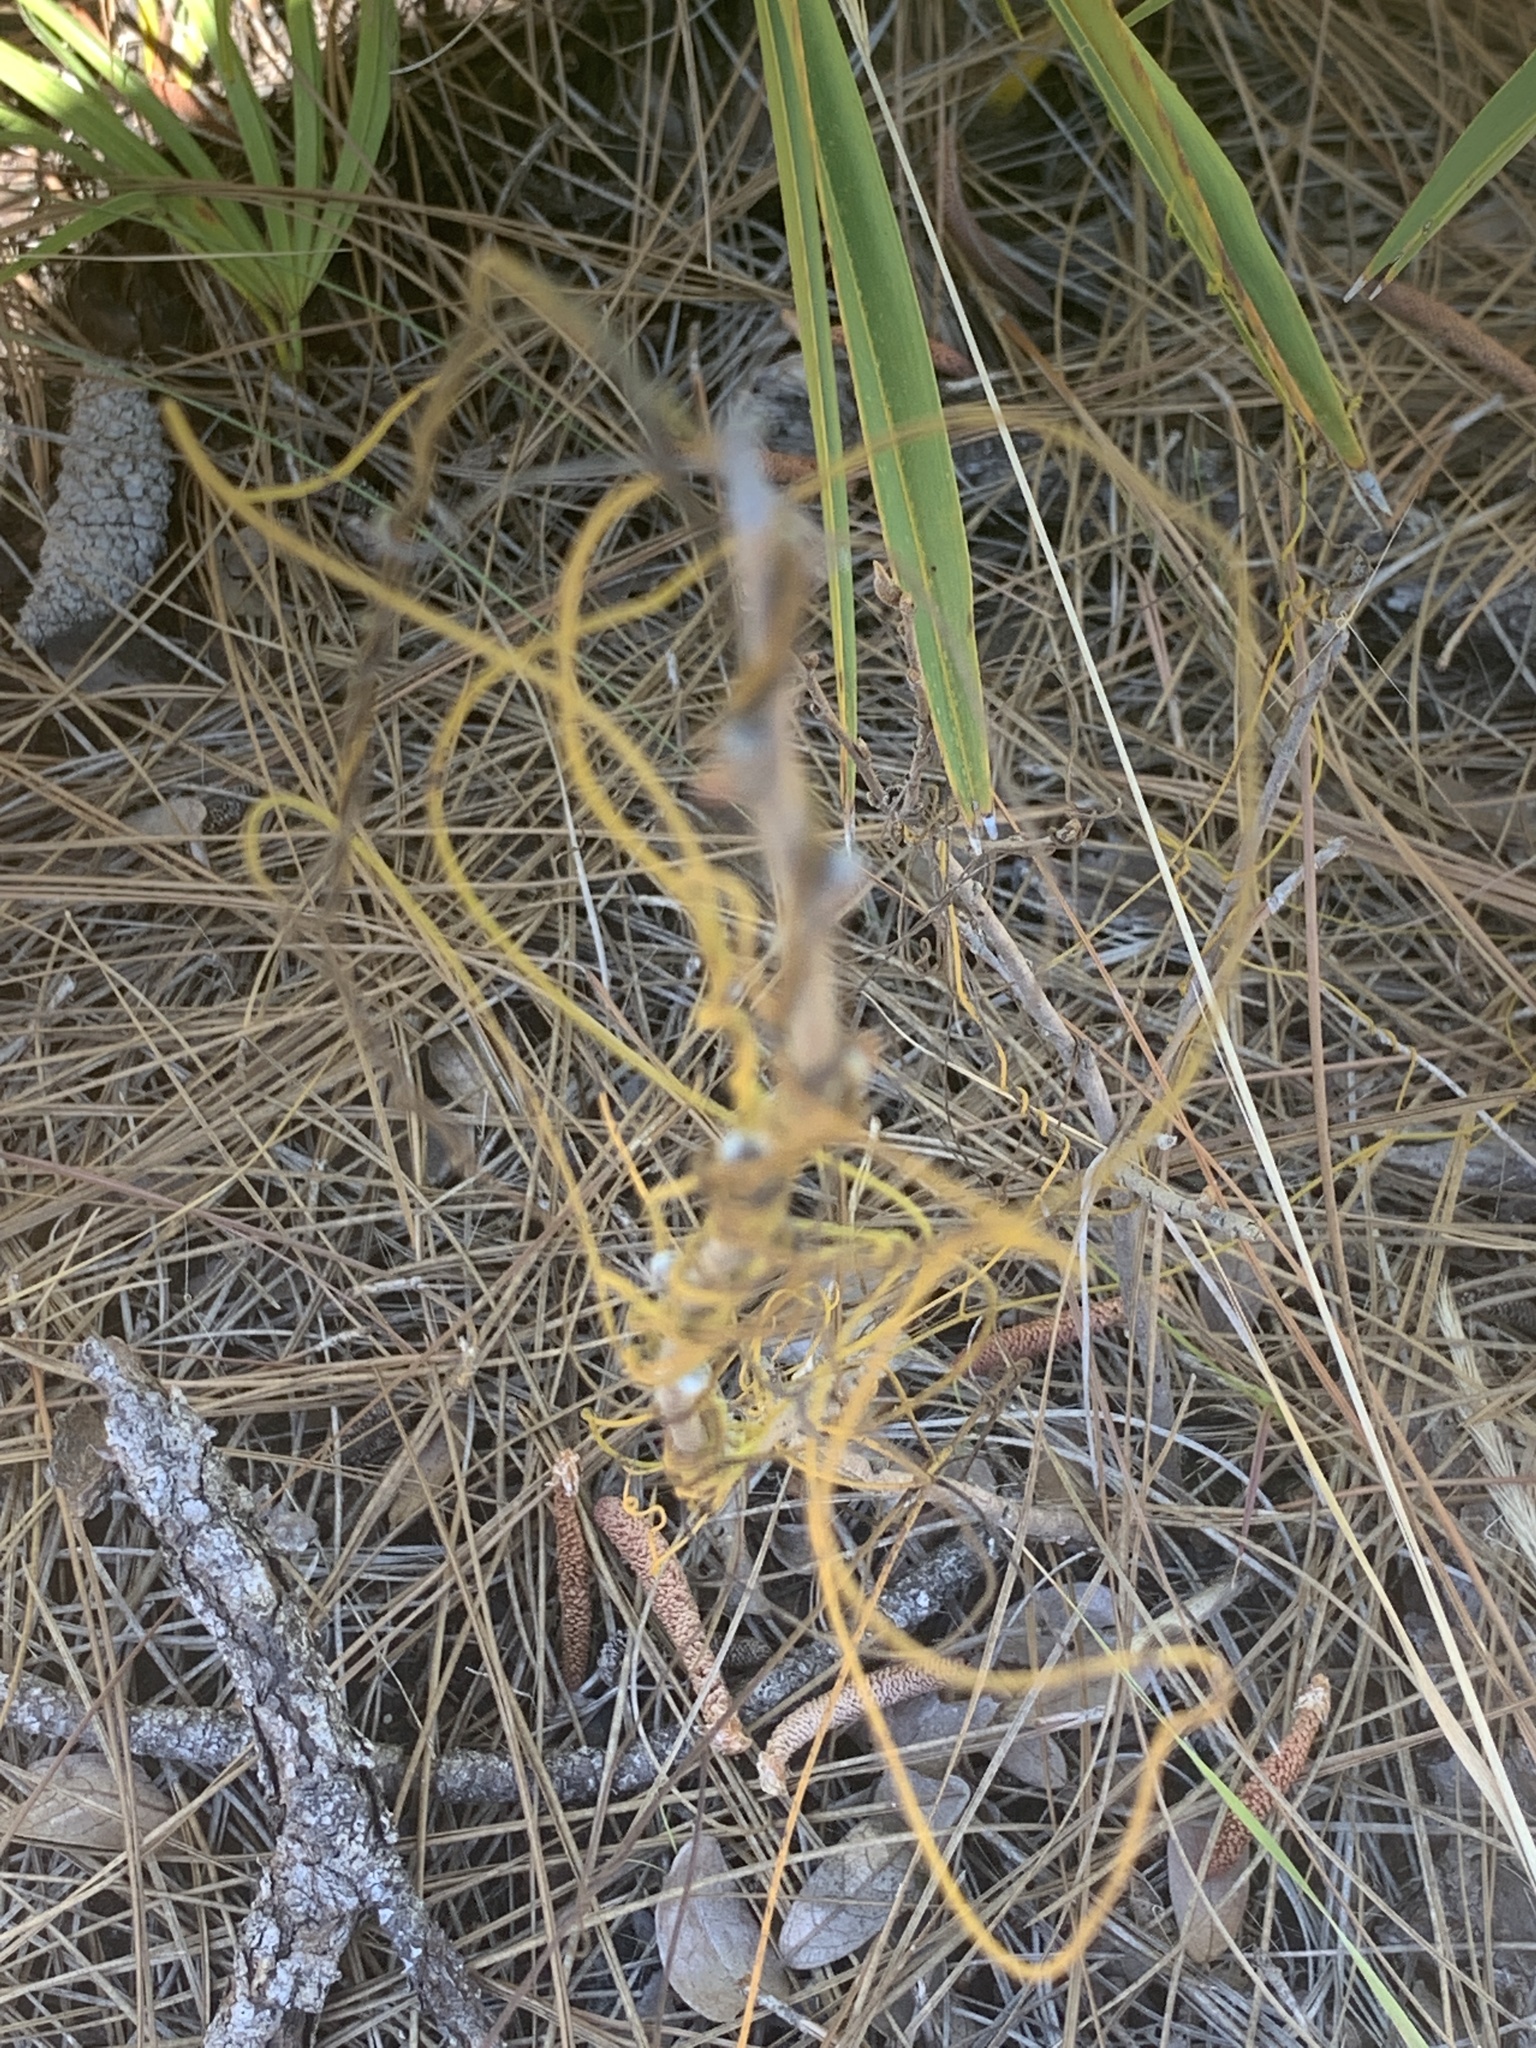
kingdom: Plantae
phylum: Tracheophyta
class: Magnoliopsida
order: Laurales
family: Lauraceae
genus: Cassytha
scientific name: Cassytha filiformis
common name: Dodder-laurel
